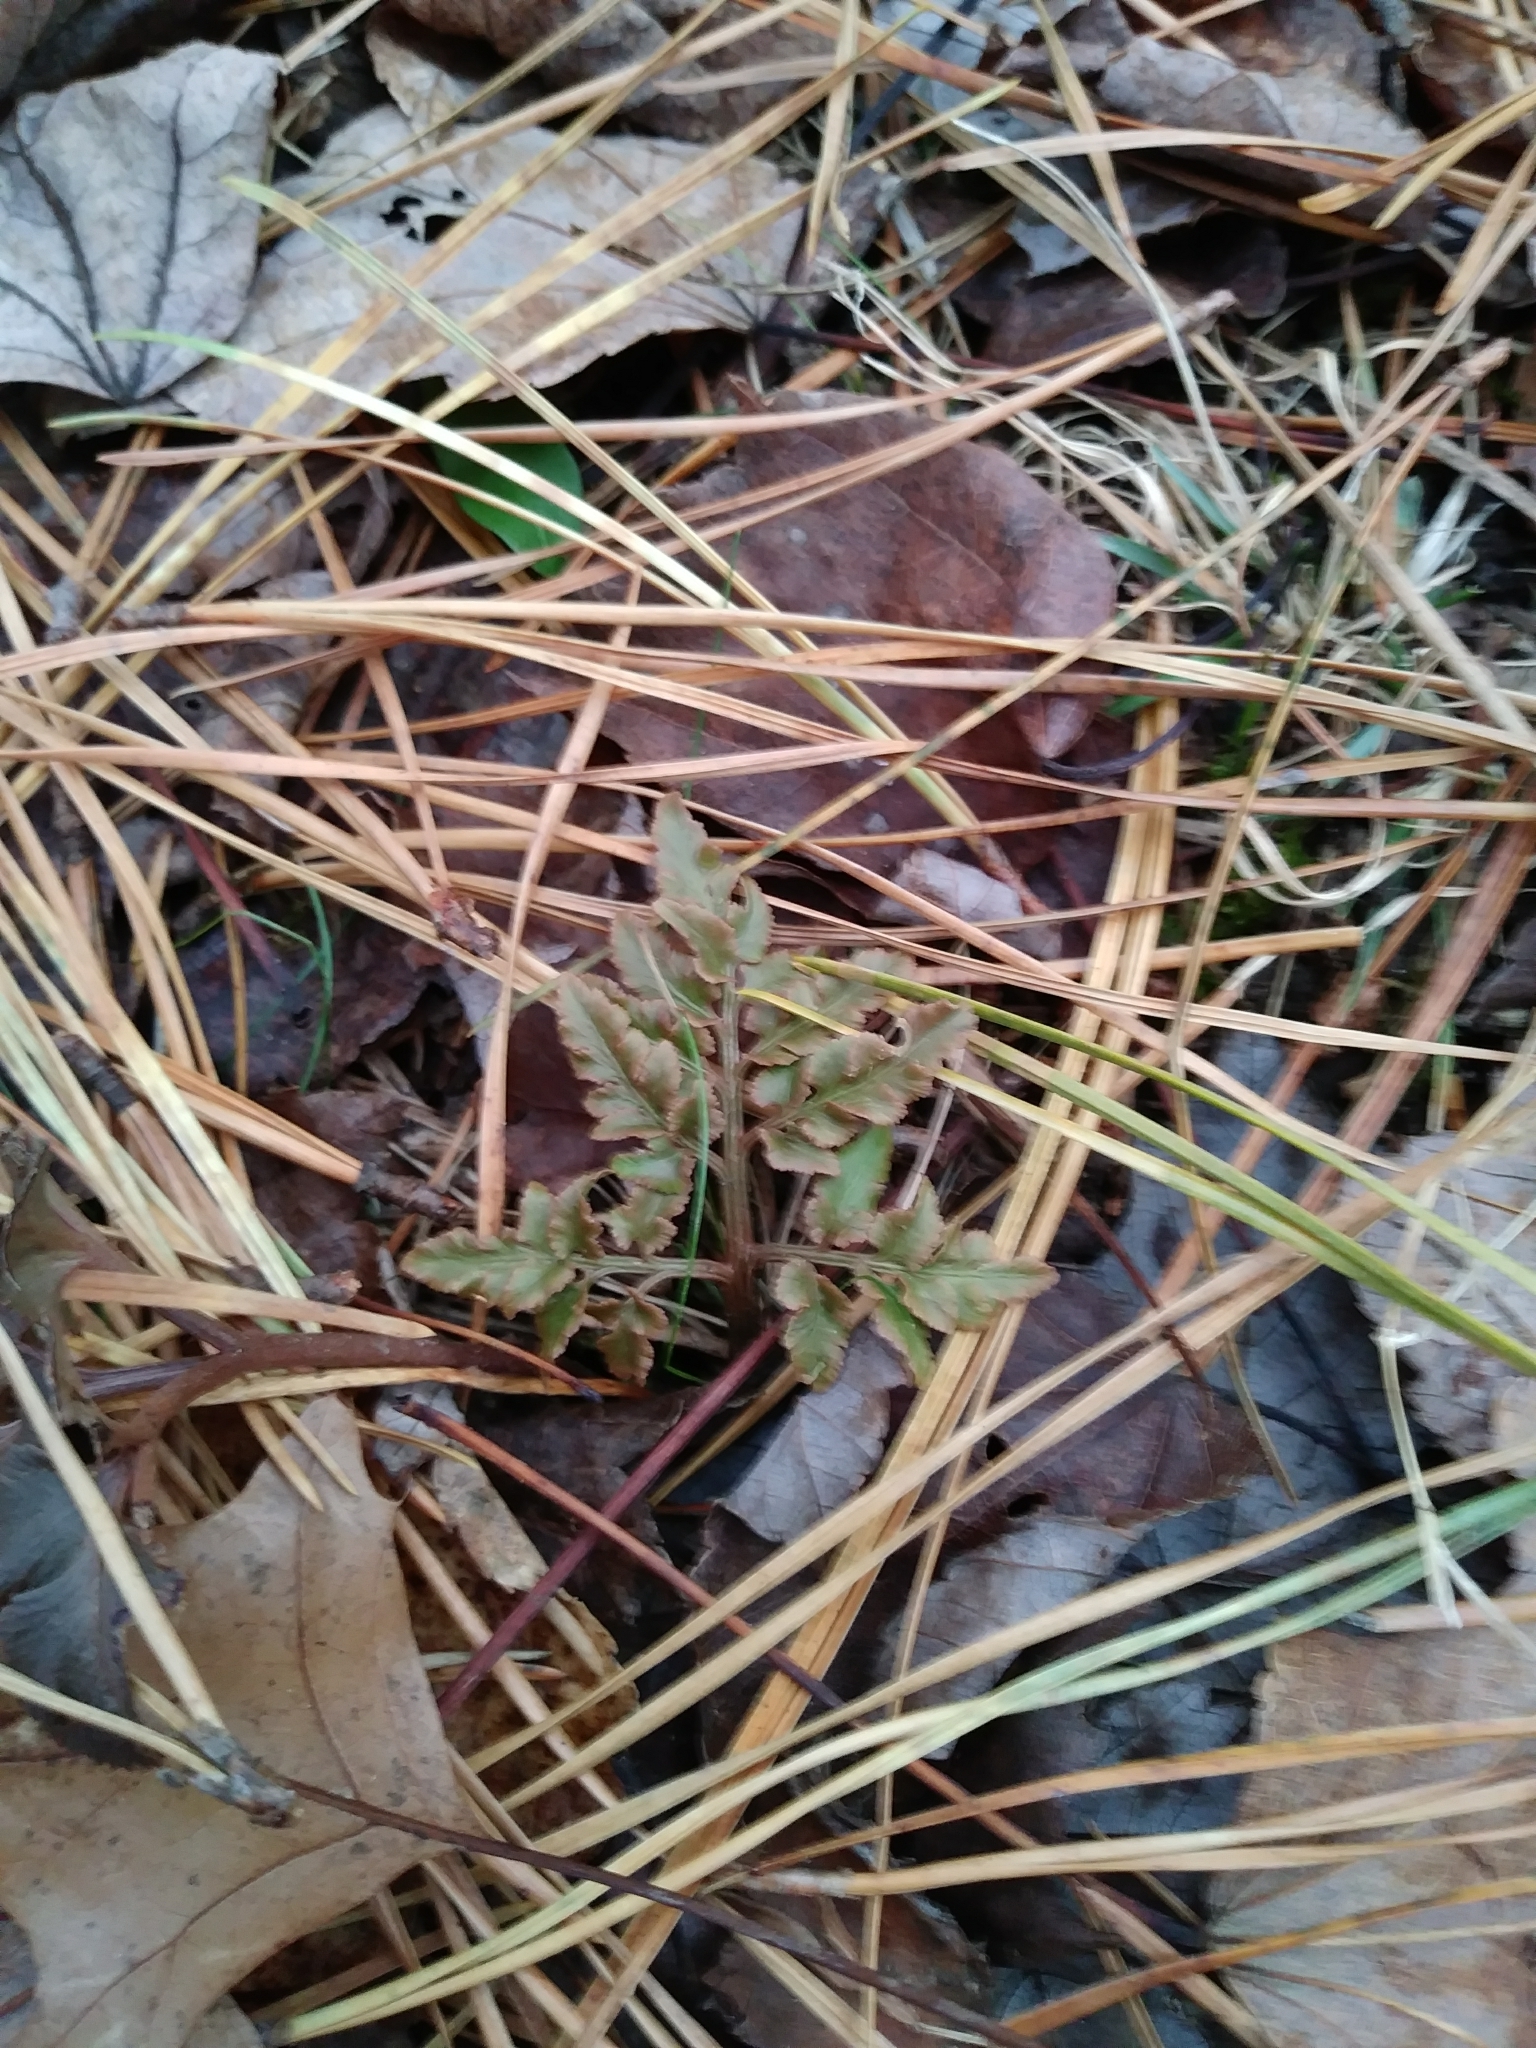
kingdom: Plantae
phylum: Tracheophyta
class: Polypodiopsida
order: Ophioglossales
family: Ophioglossaceae
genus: Sceptridium
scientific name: Sceptridium dissectum
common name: Cut-leaved grapefern
